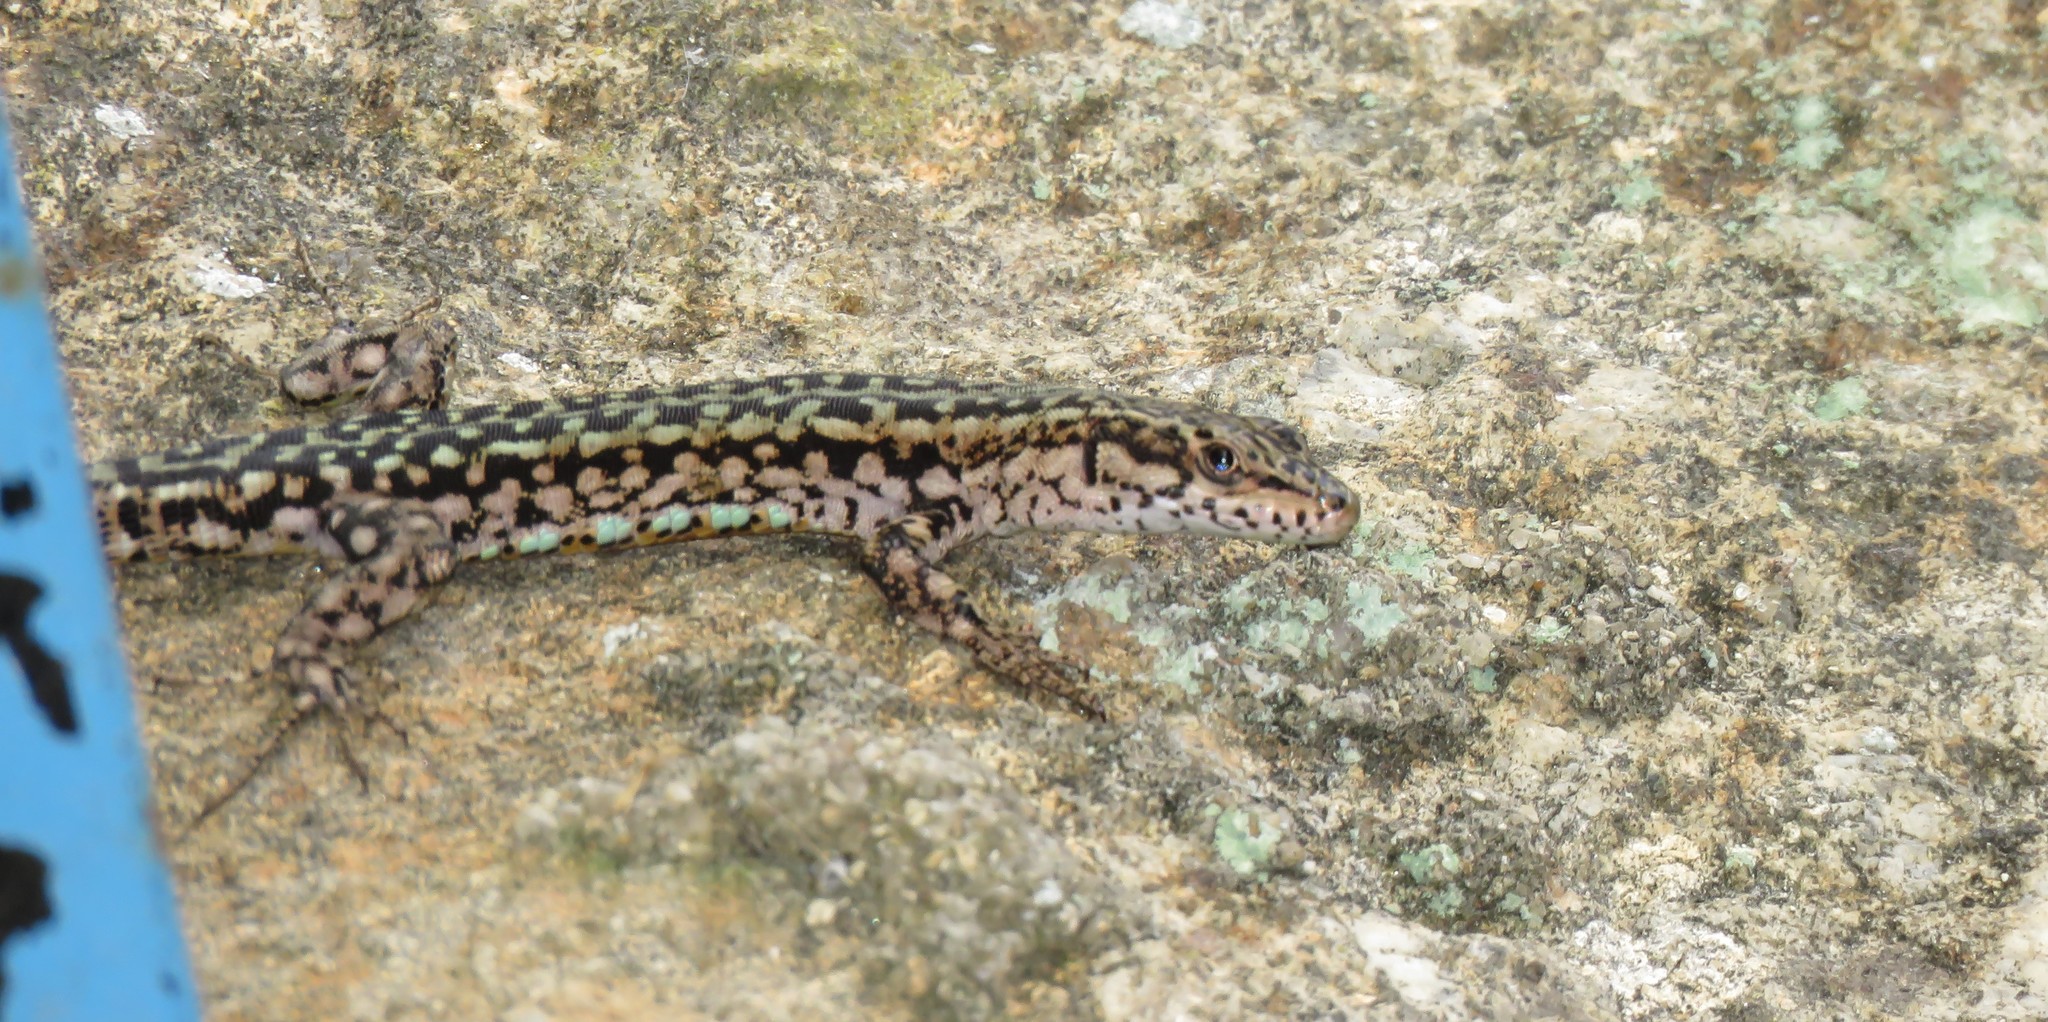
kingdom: Animalia
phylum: Chordata
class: Squamata
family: Lacertidae
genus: Podarcis
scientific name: Podarcis virescens
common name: Geniez’s wall lizard
